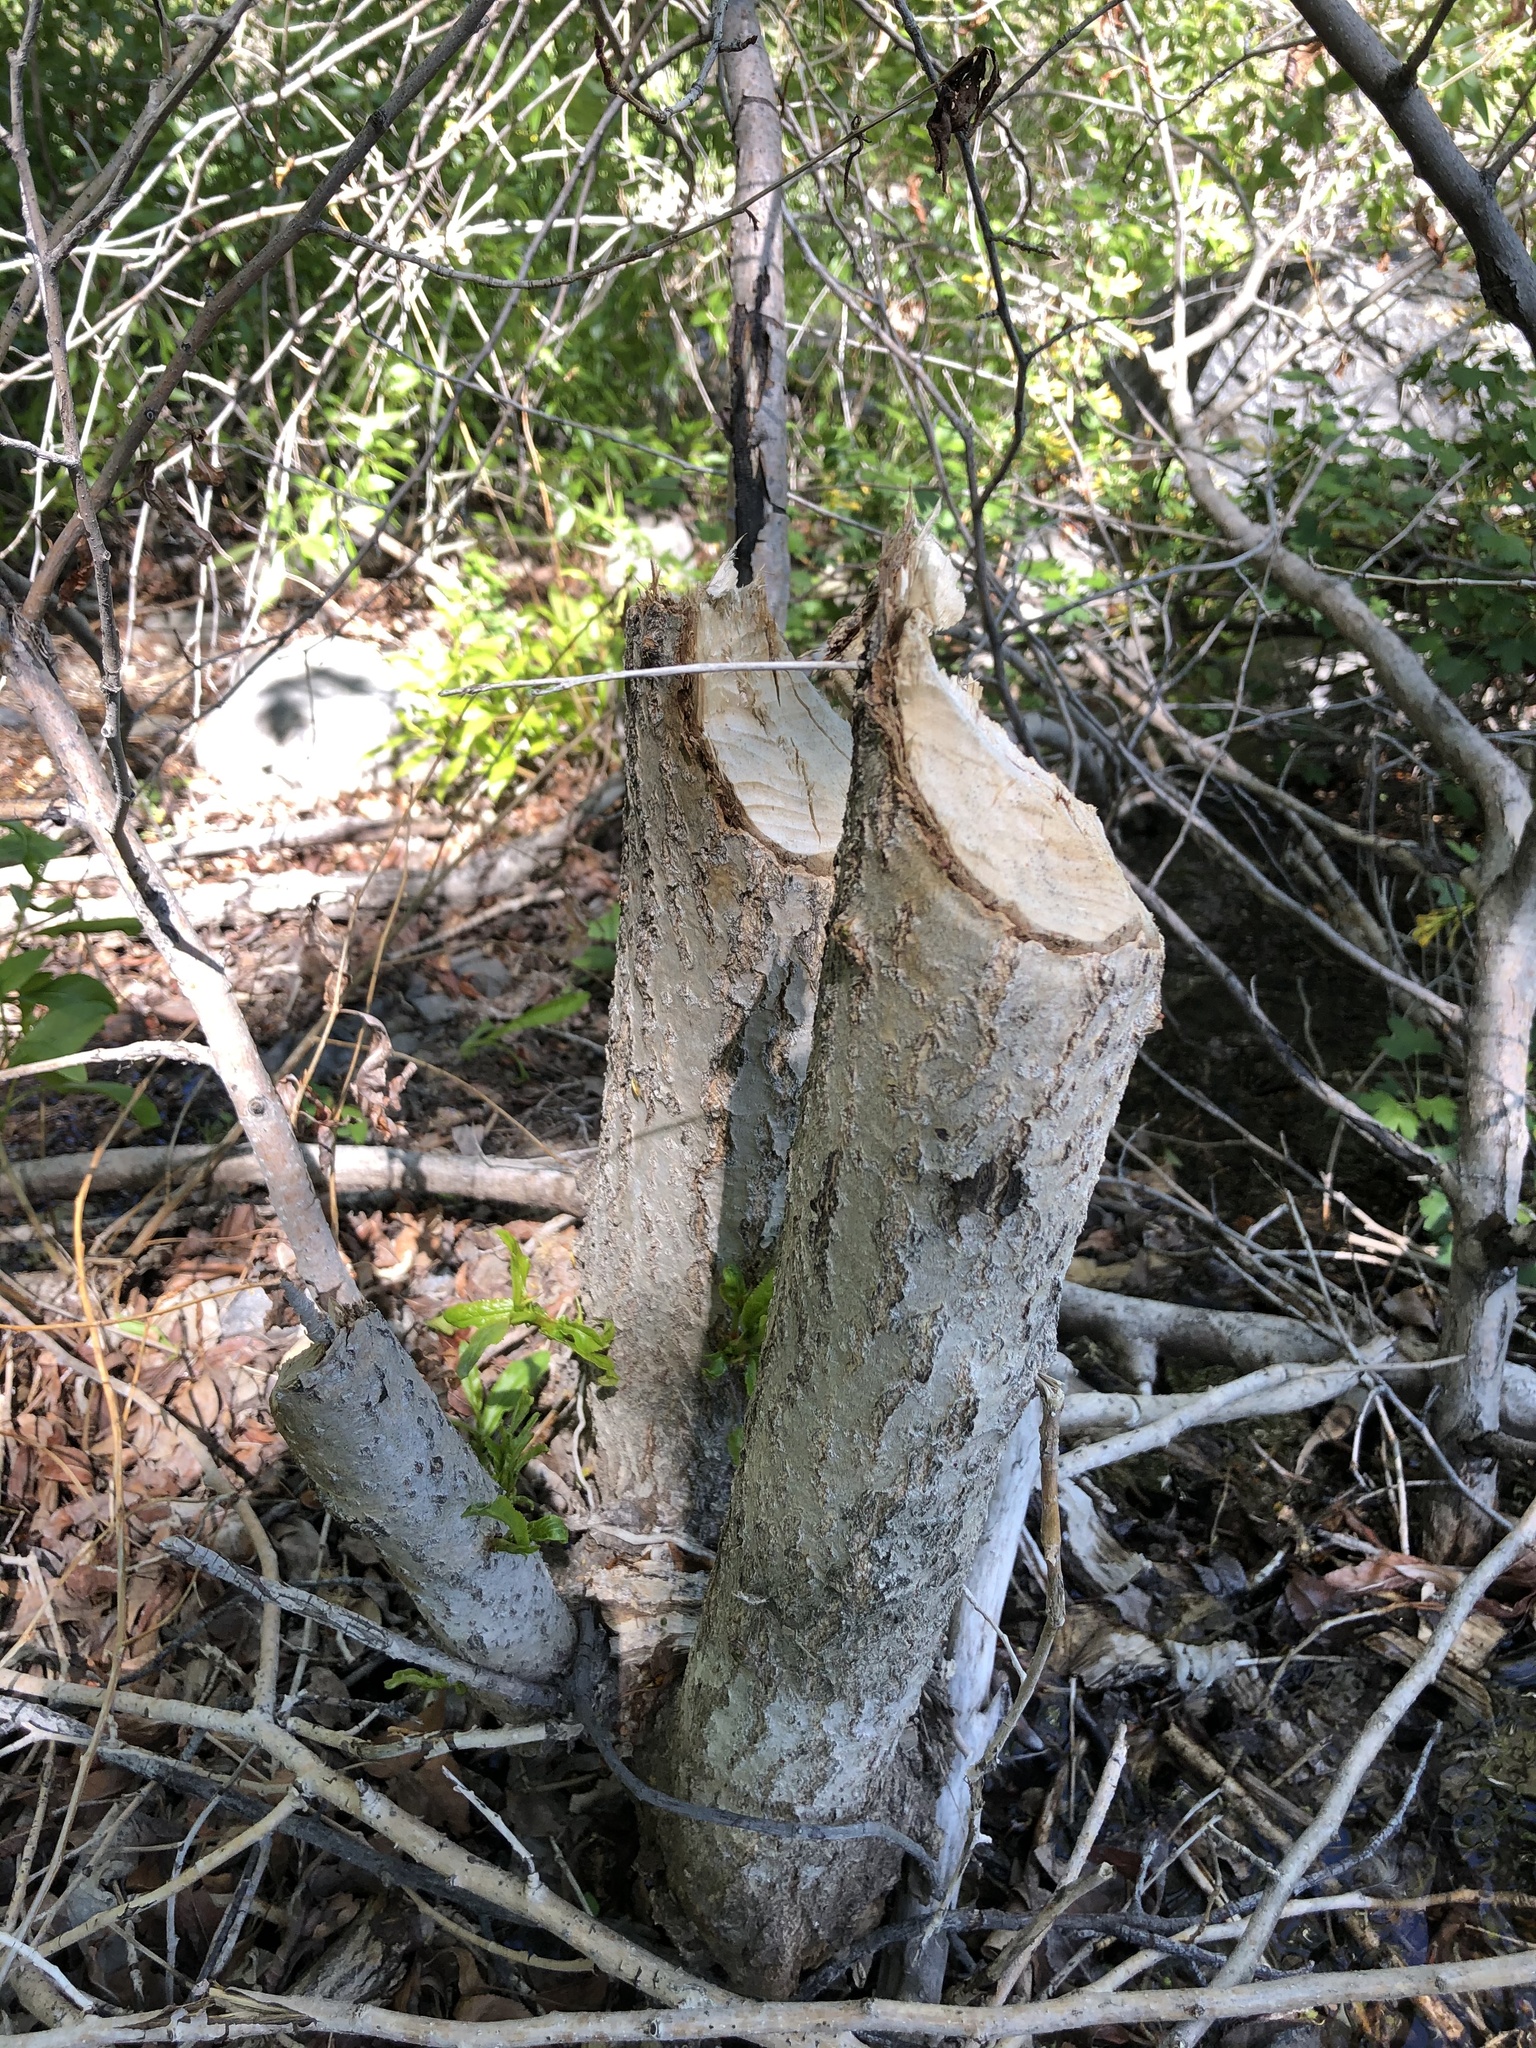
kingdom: Animalia
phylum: Chordata
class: Mammalia
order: Rodentia
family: Castoridae
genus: Castor
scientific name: Castor canadensis
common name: American beaver
